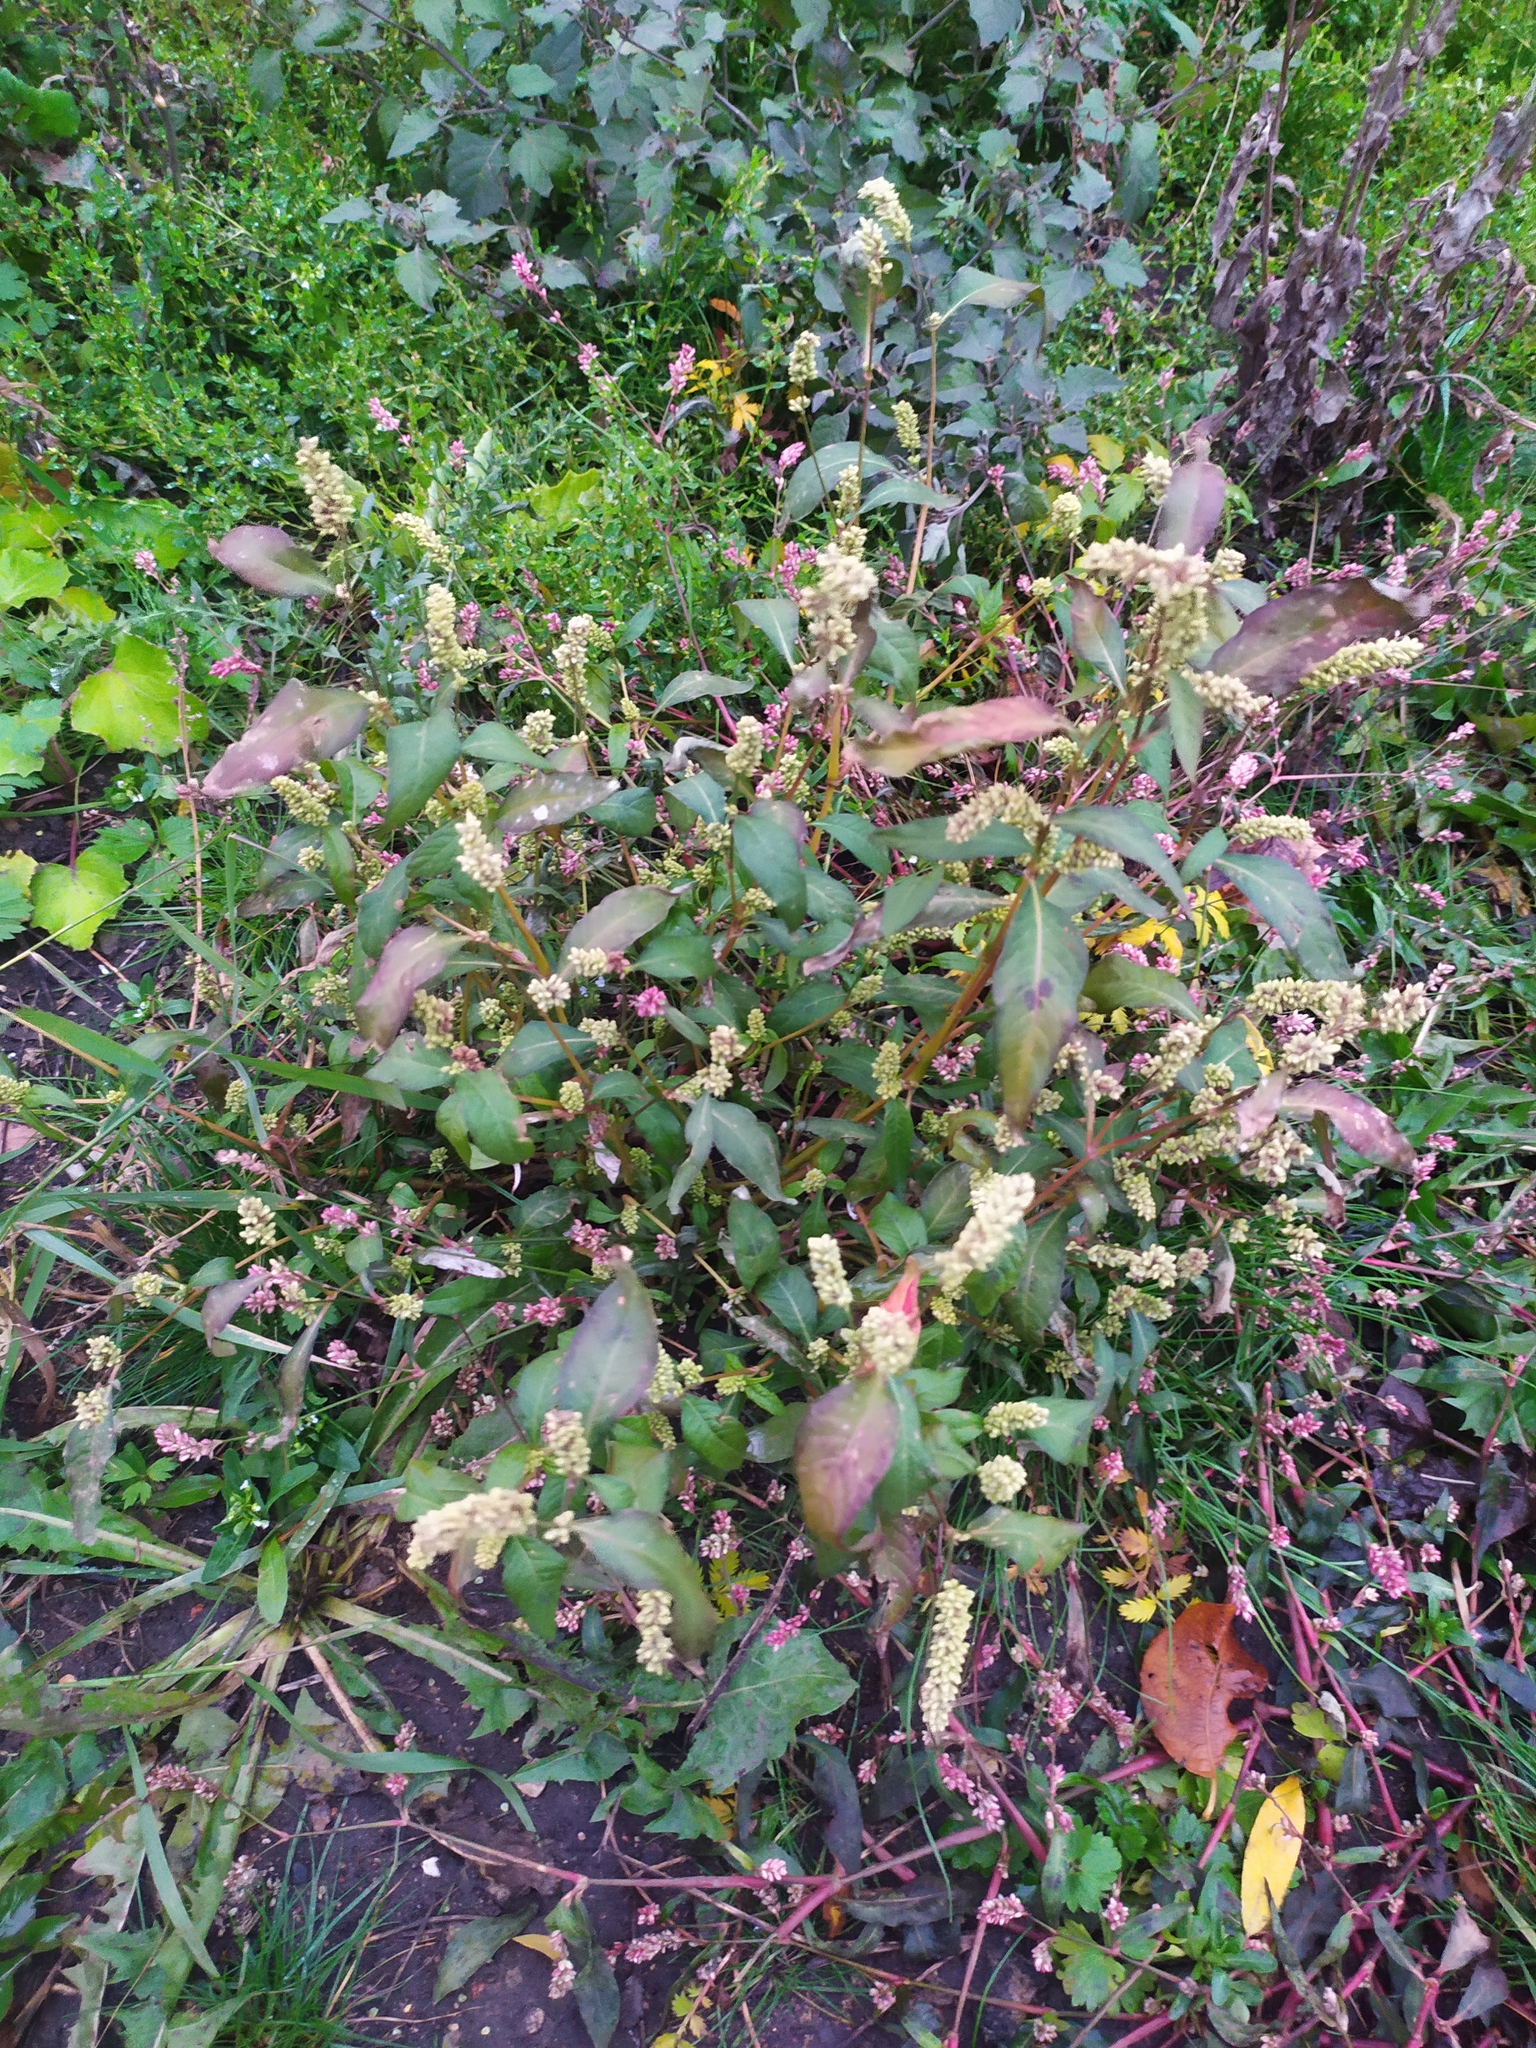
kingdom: Plantae
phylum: Tracheophyta
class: Magnoliopsida
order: Caryophyllales
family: Polygonaceae
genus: Persicaria
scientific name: Persicaria lapathifolia
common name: Curlytop knotweed
